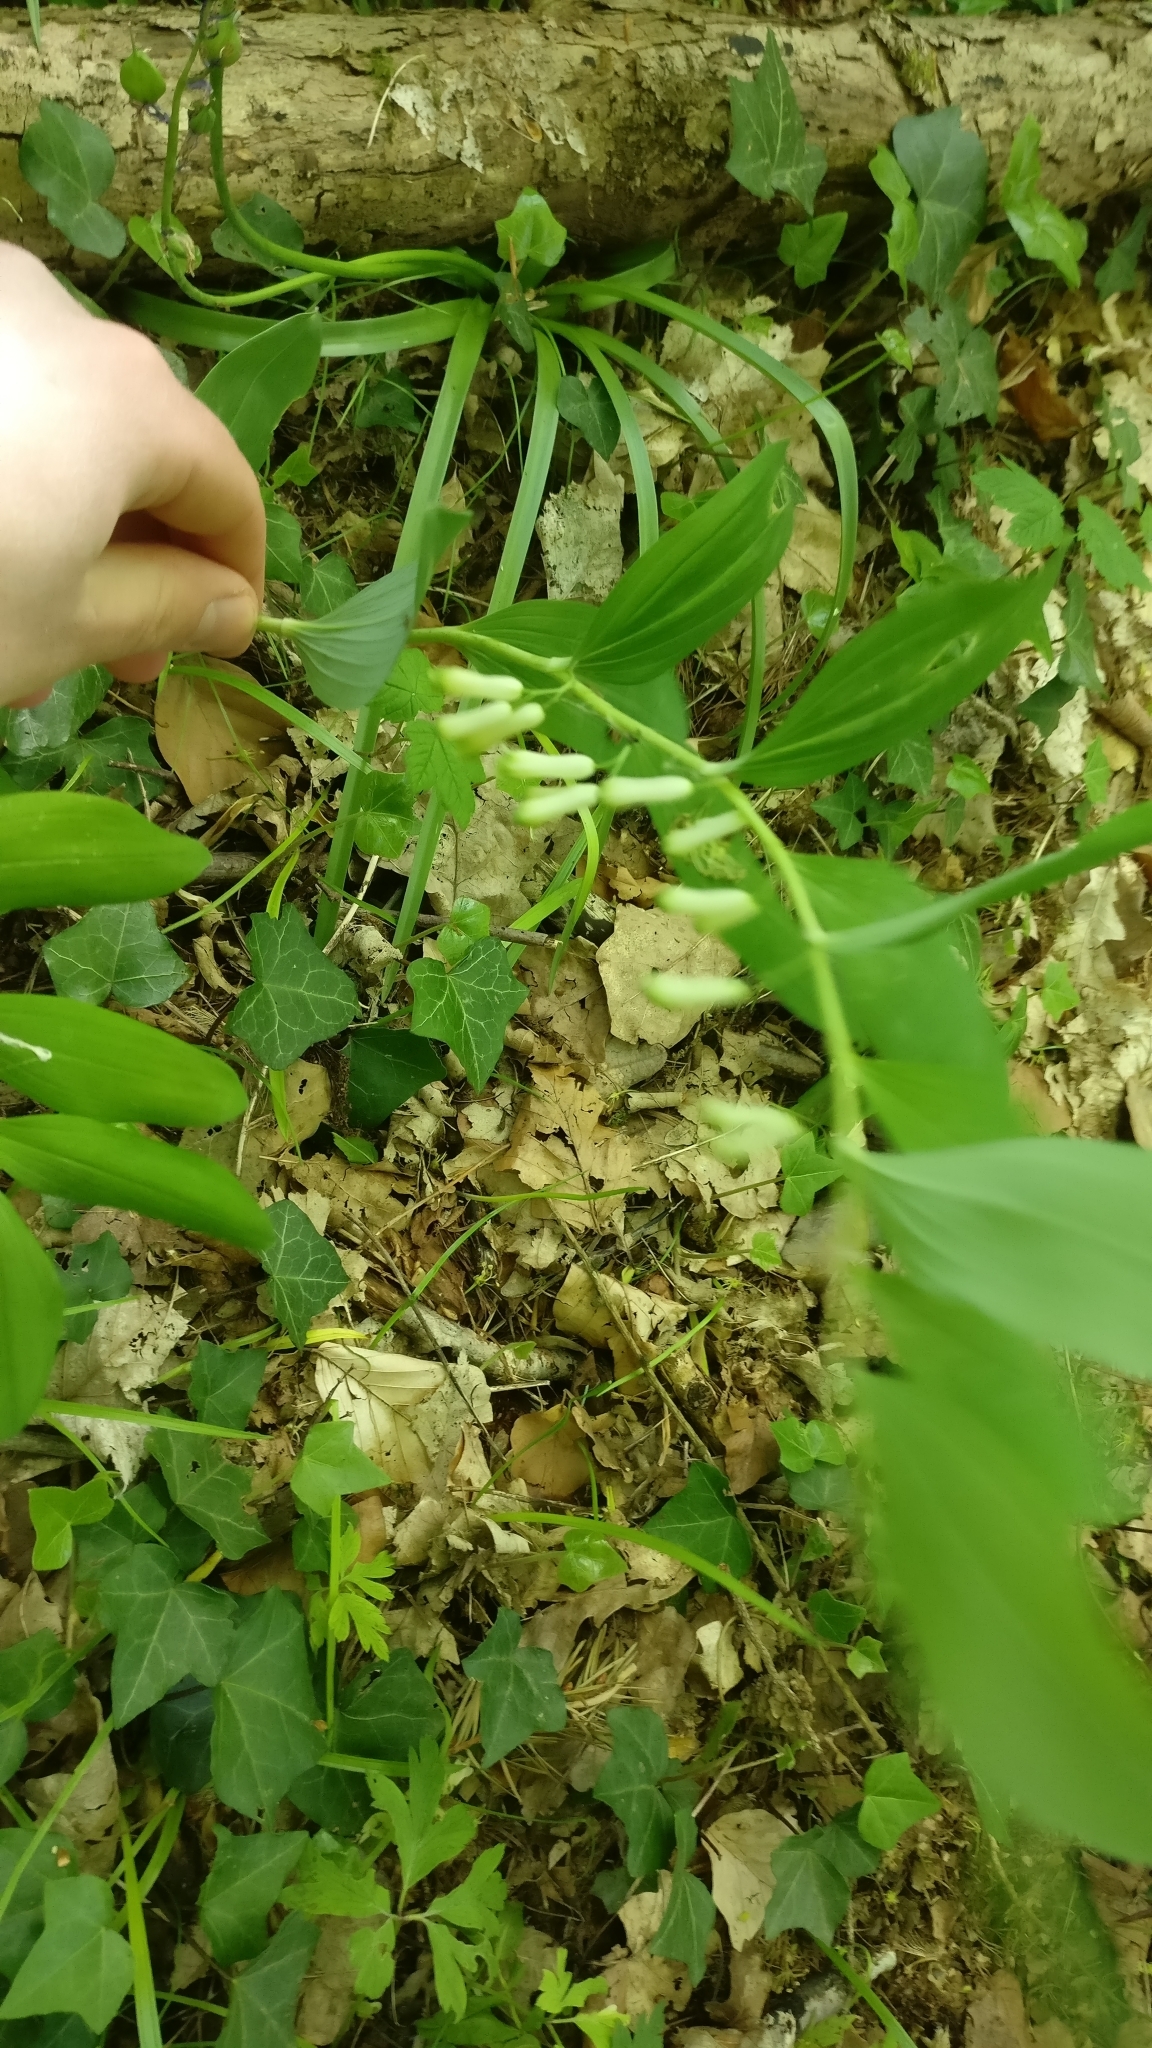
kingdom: Plantae
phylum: Tracheophyta
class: Liliopsida
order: Asparagales
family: Asparagaceae
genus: Polygonatum
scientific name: Polygonatum multiflorum
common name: Solomon's-seal
